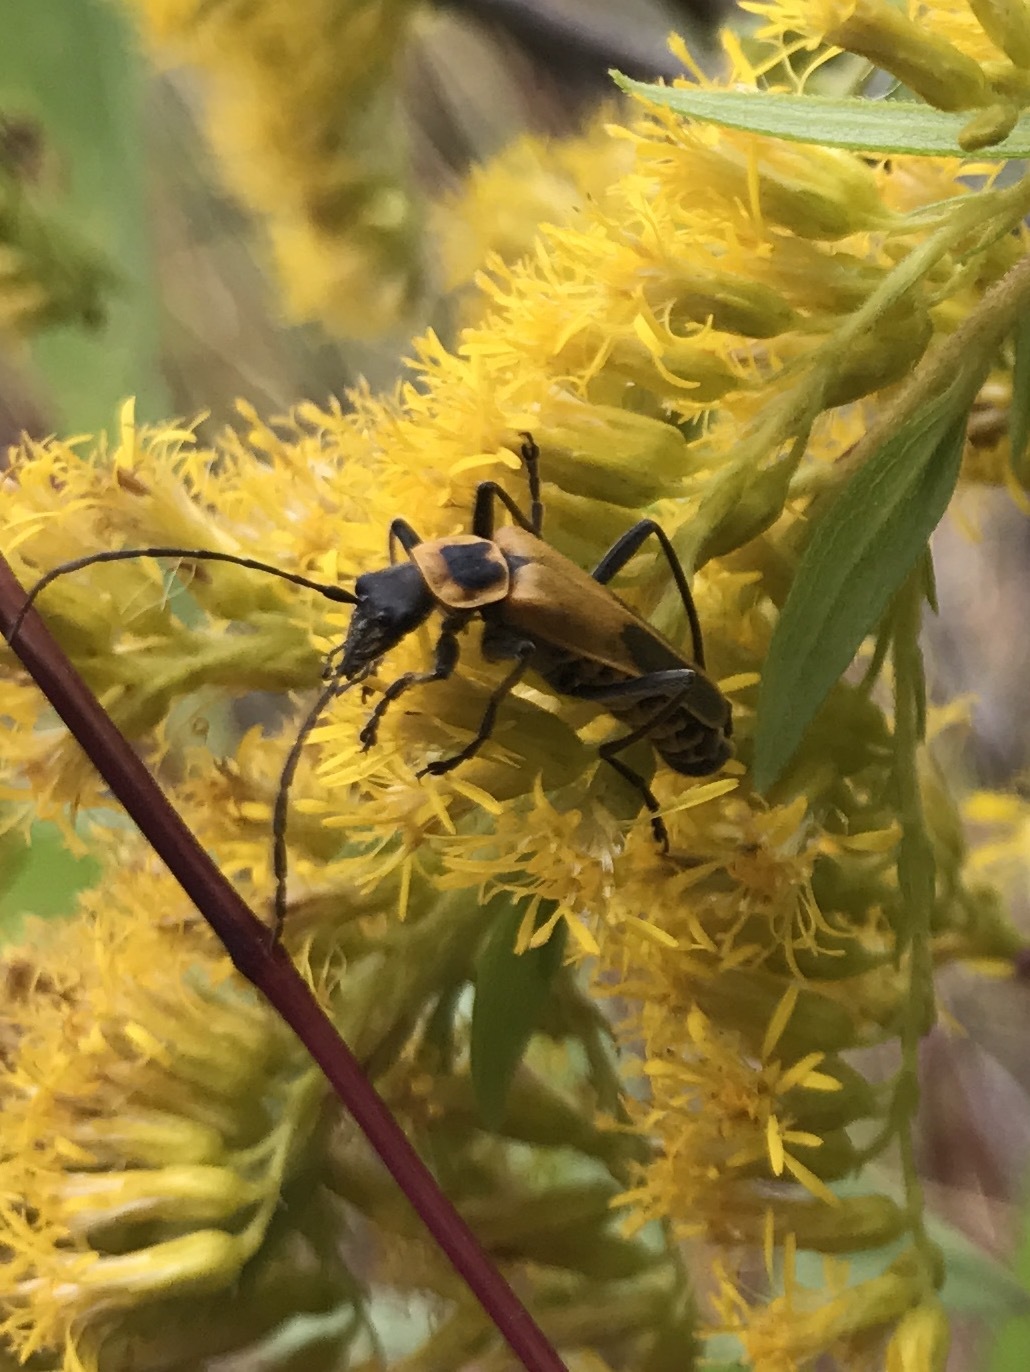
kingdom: Animalia
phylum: Arthropoda
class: Insecta
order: Coleoptera
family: Cantharidae
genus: Chauliognathus
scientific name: Chauliognathus pensylvanicus
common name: Goldenrod soldier beetle
